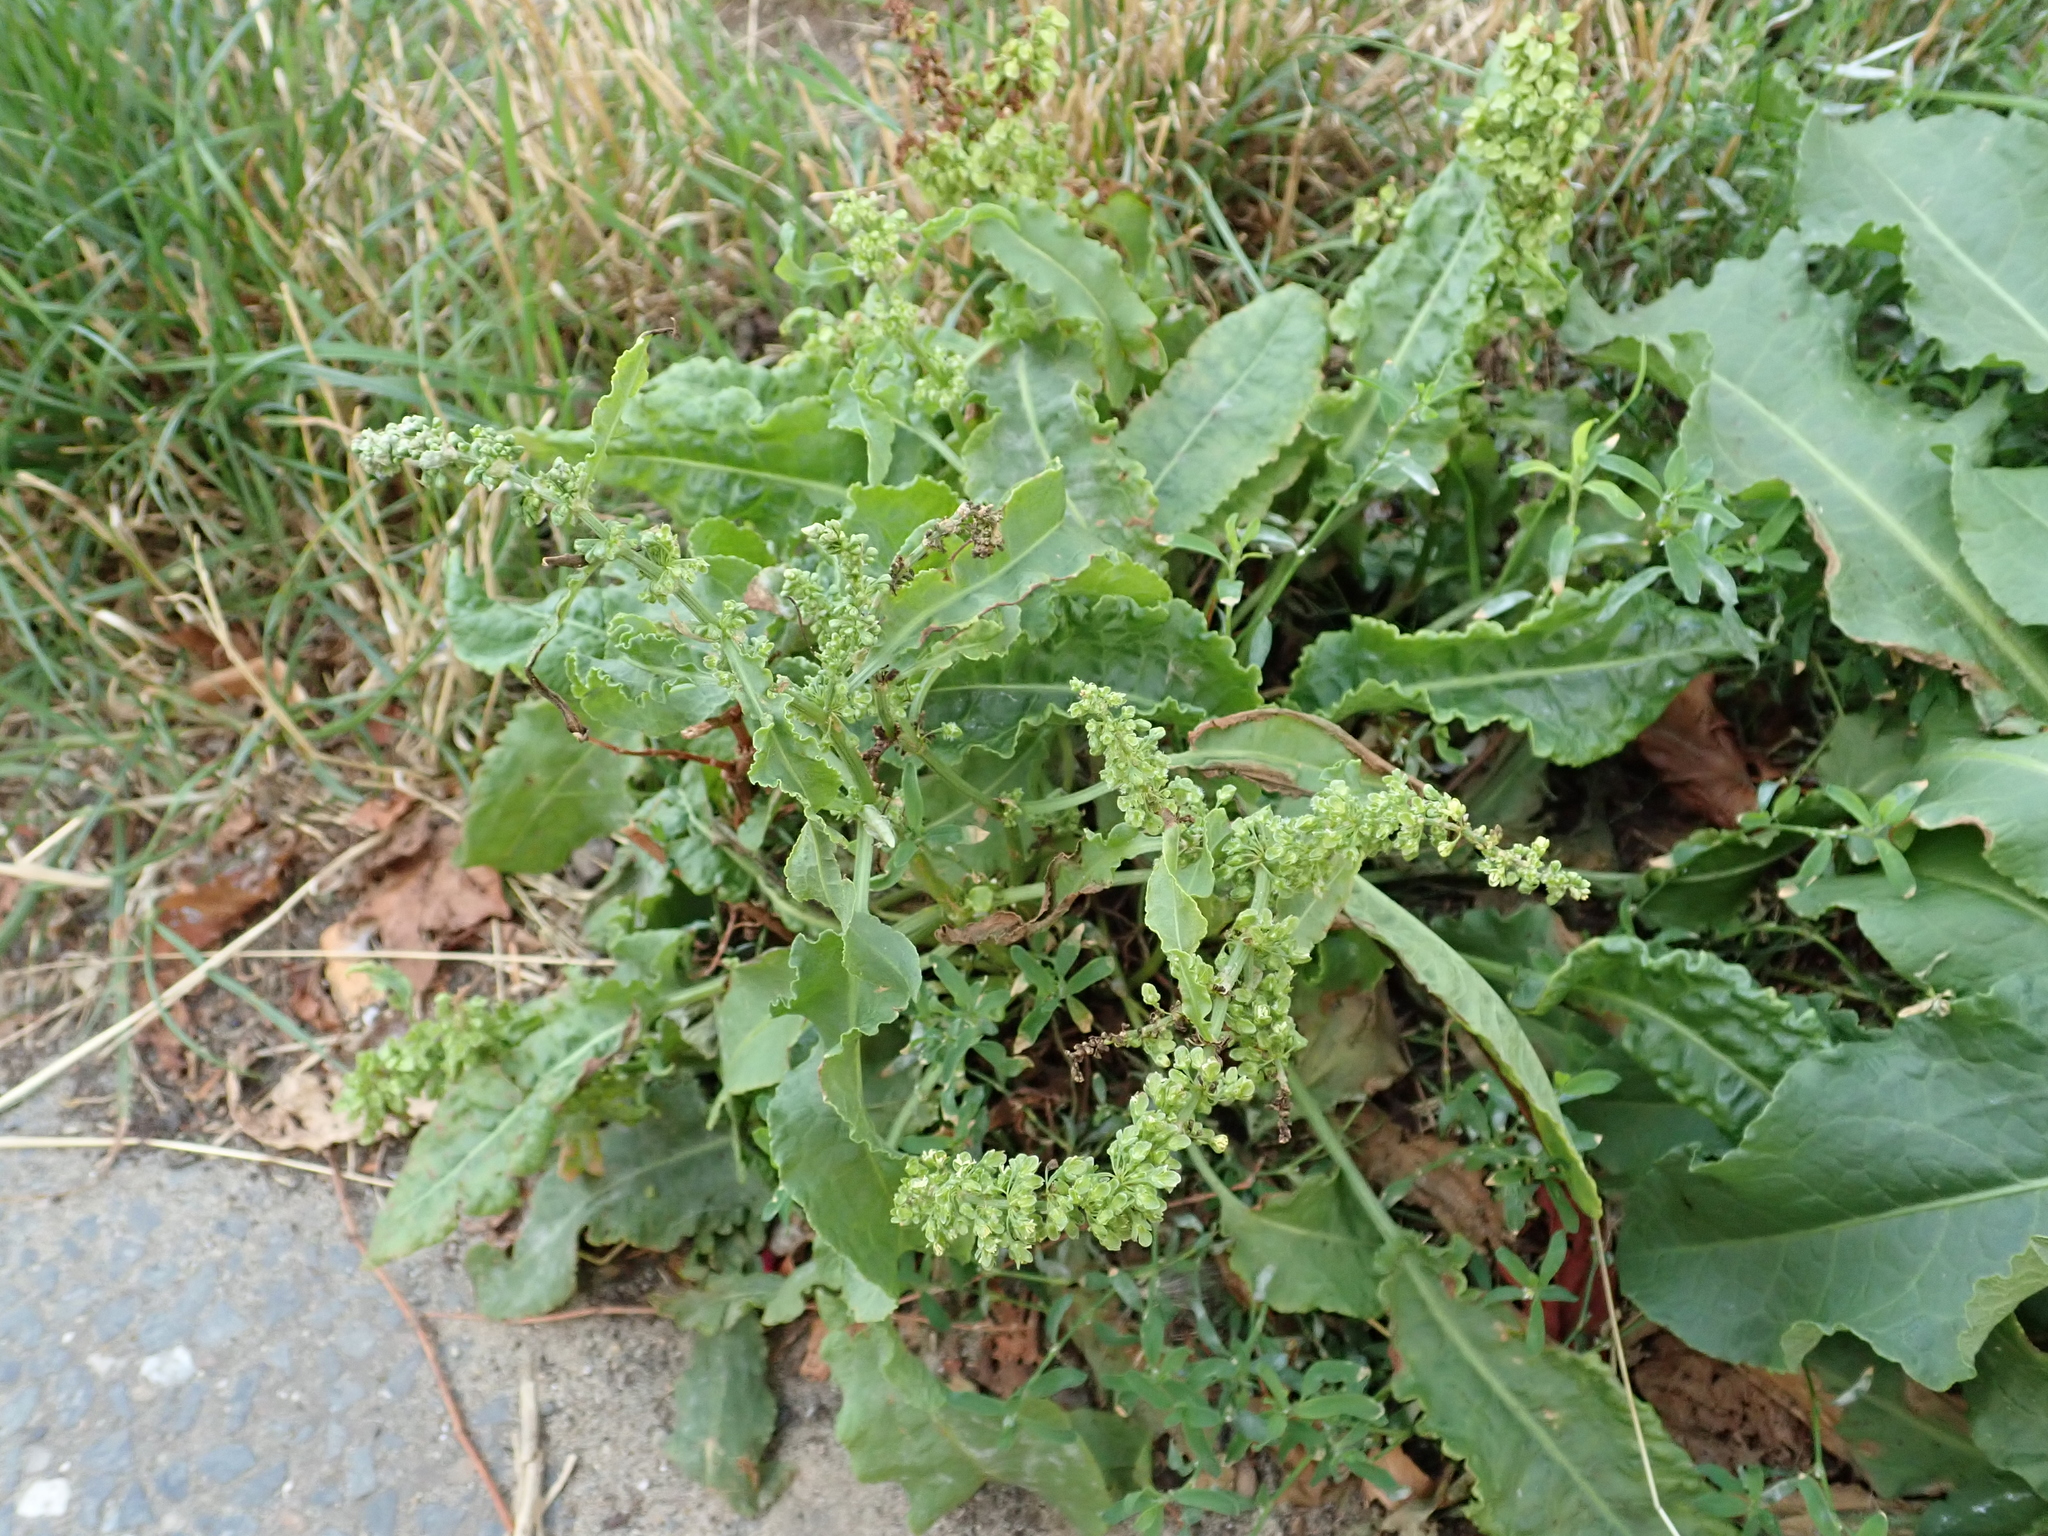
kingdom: Plantae
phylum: Tracheophyta
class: Magnoliopsida
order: Caryophyllales
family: Polygonaceae
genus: Rumex
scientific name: Rumex crispus
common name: Curled dock
